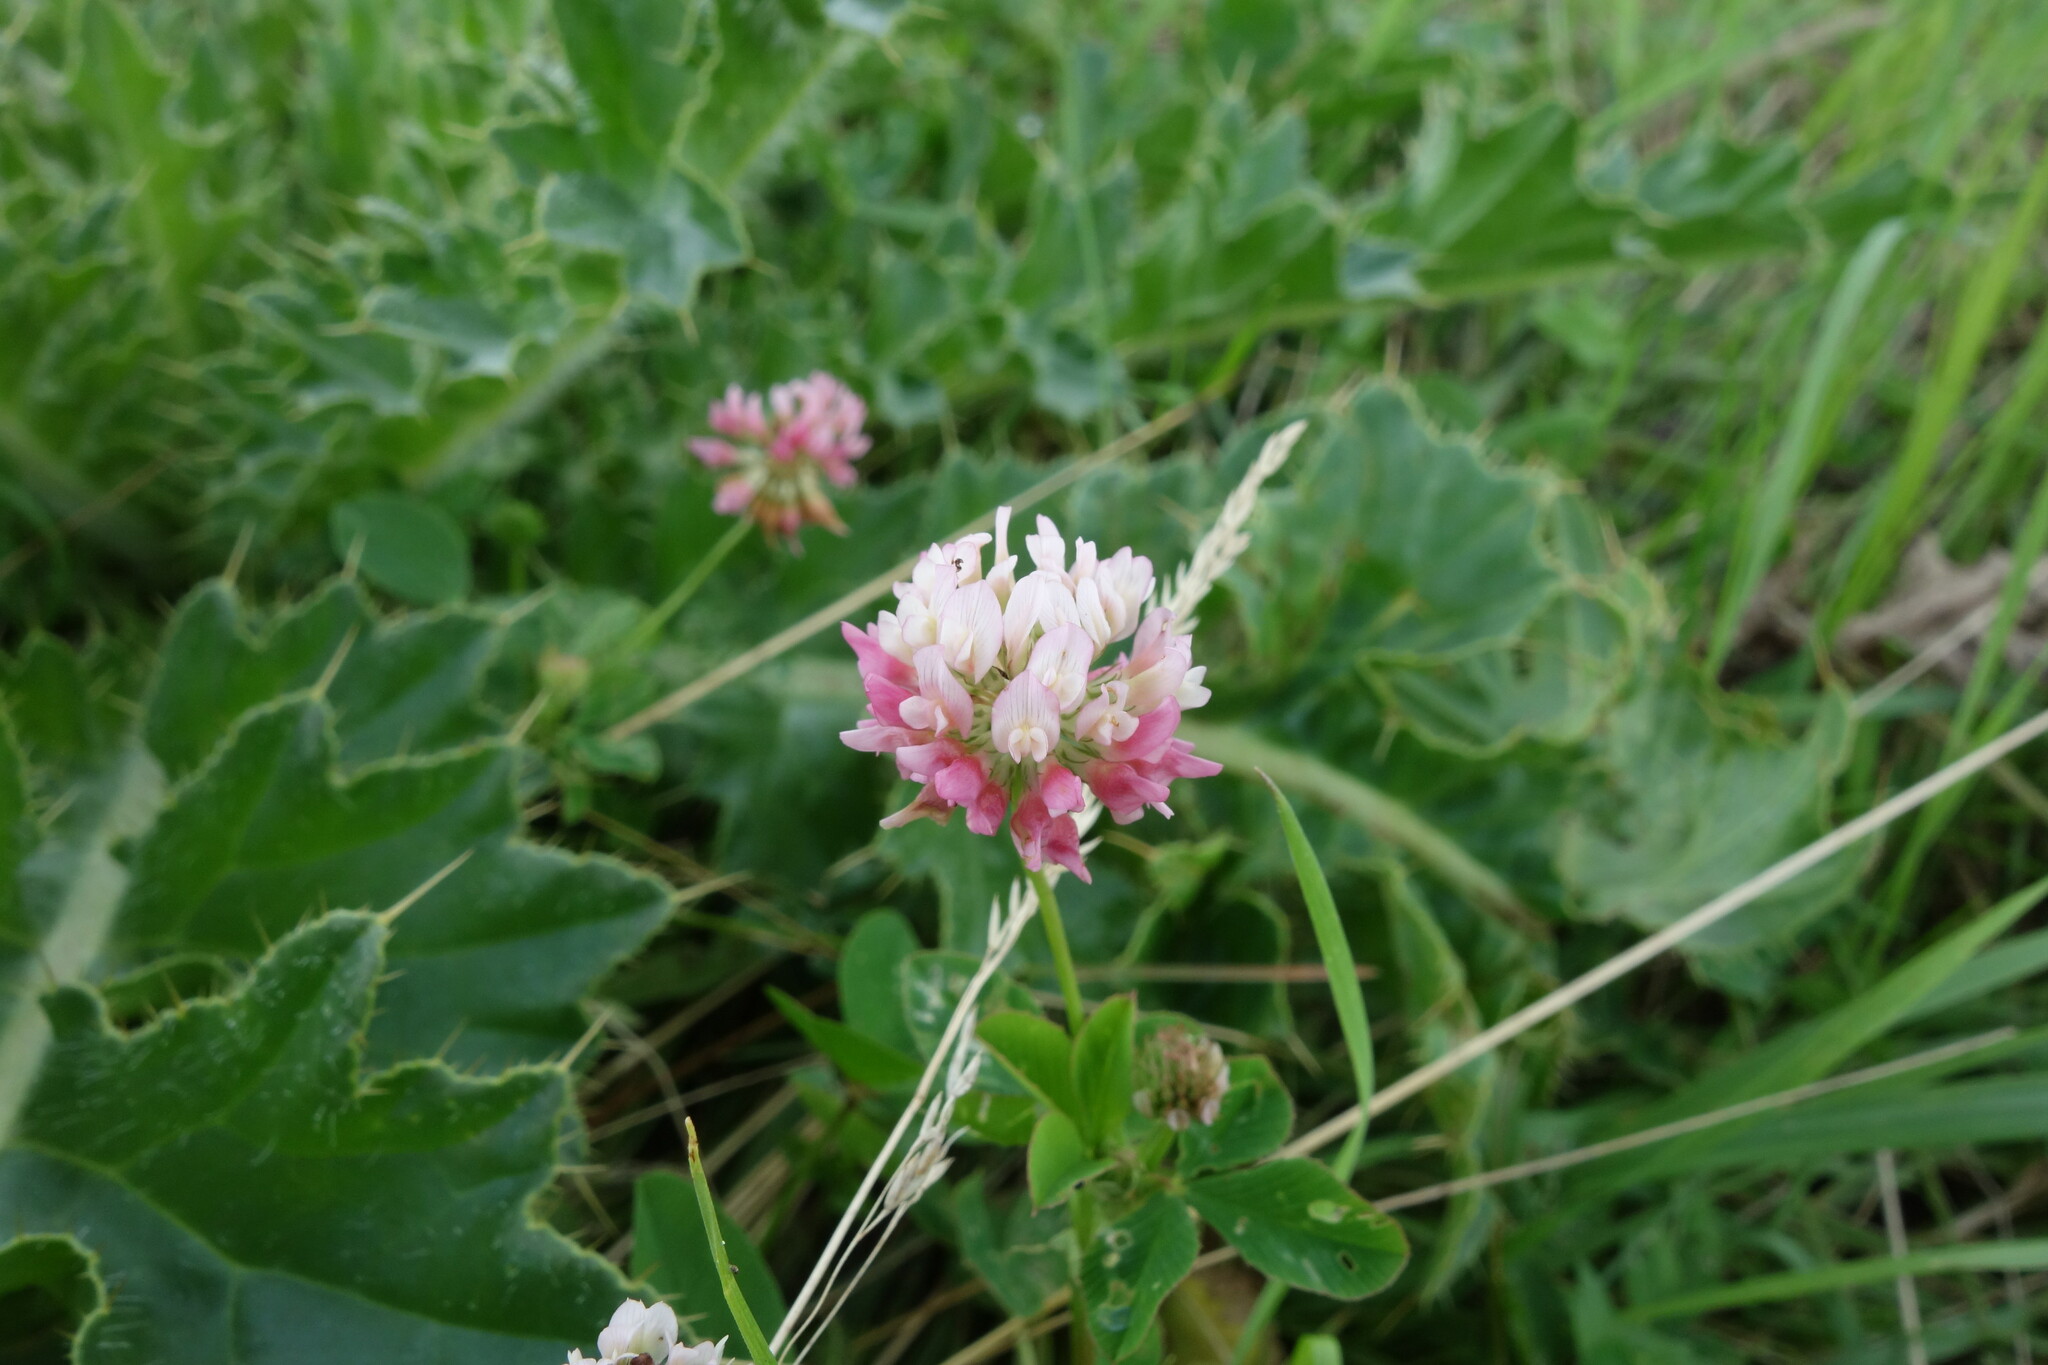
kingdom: Plantae
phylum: Tracheophyta
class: Magnoliopsida
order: Fabales
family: Fabaceae
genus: Trifolium
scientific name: Trifolium hybridum
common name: Alsike clover
